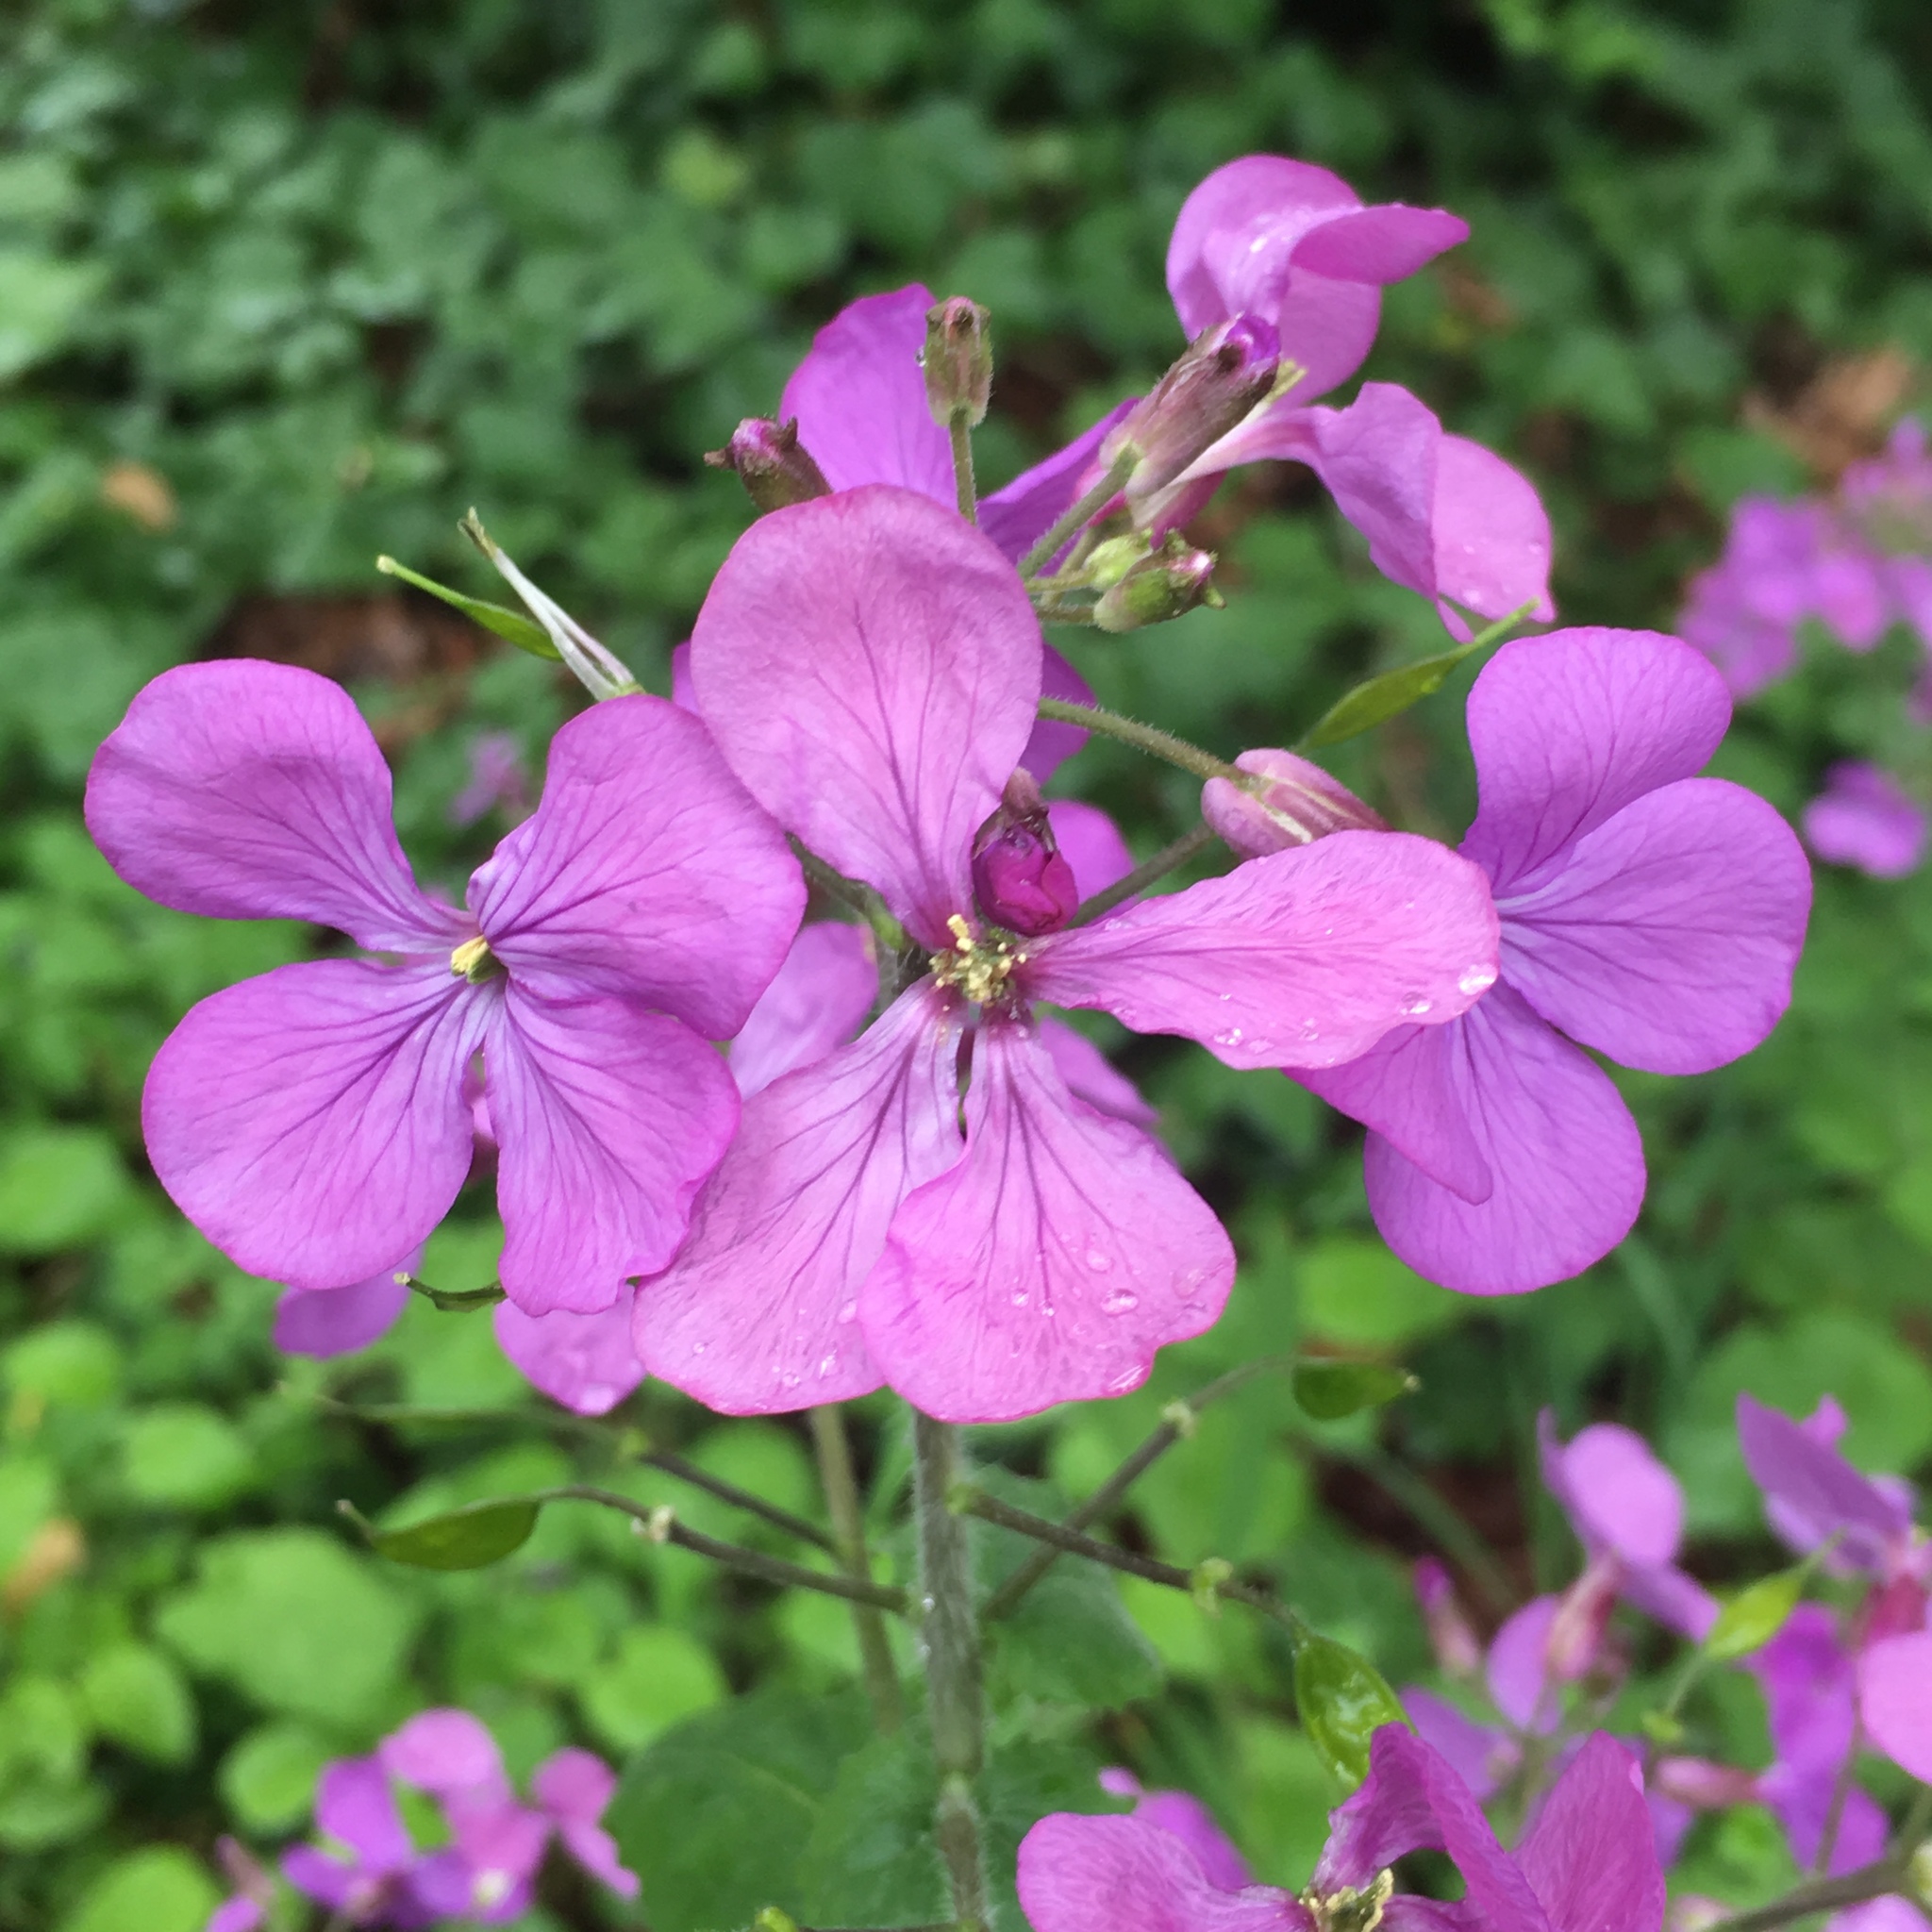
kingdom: Plantae
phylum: Tracheophyta
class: Magnoliopsida
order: Brassicales
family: Brassicaceae
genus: Lunaria
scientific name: Lunaria annua
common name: Honesty
